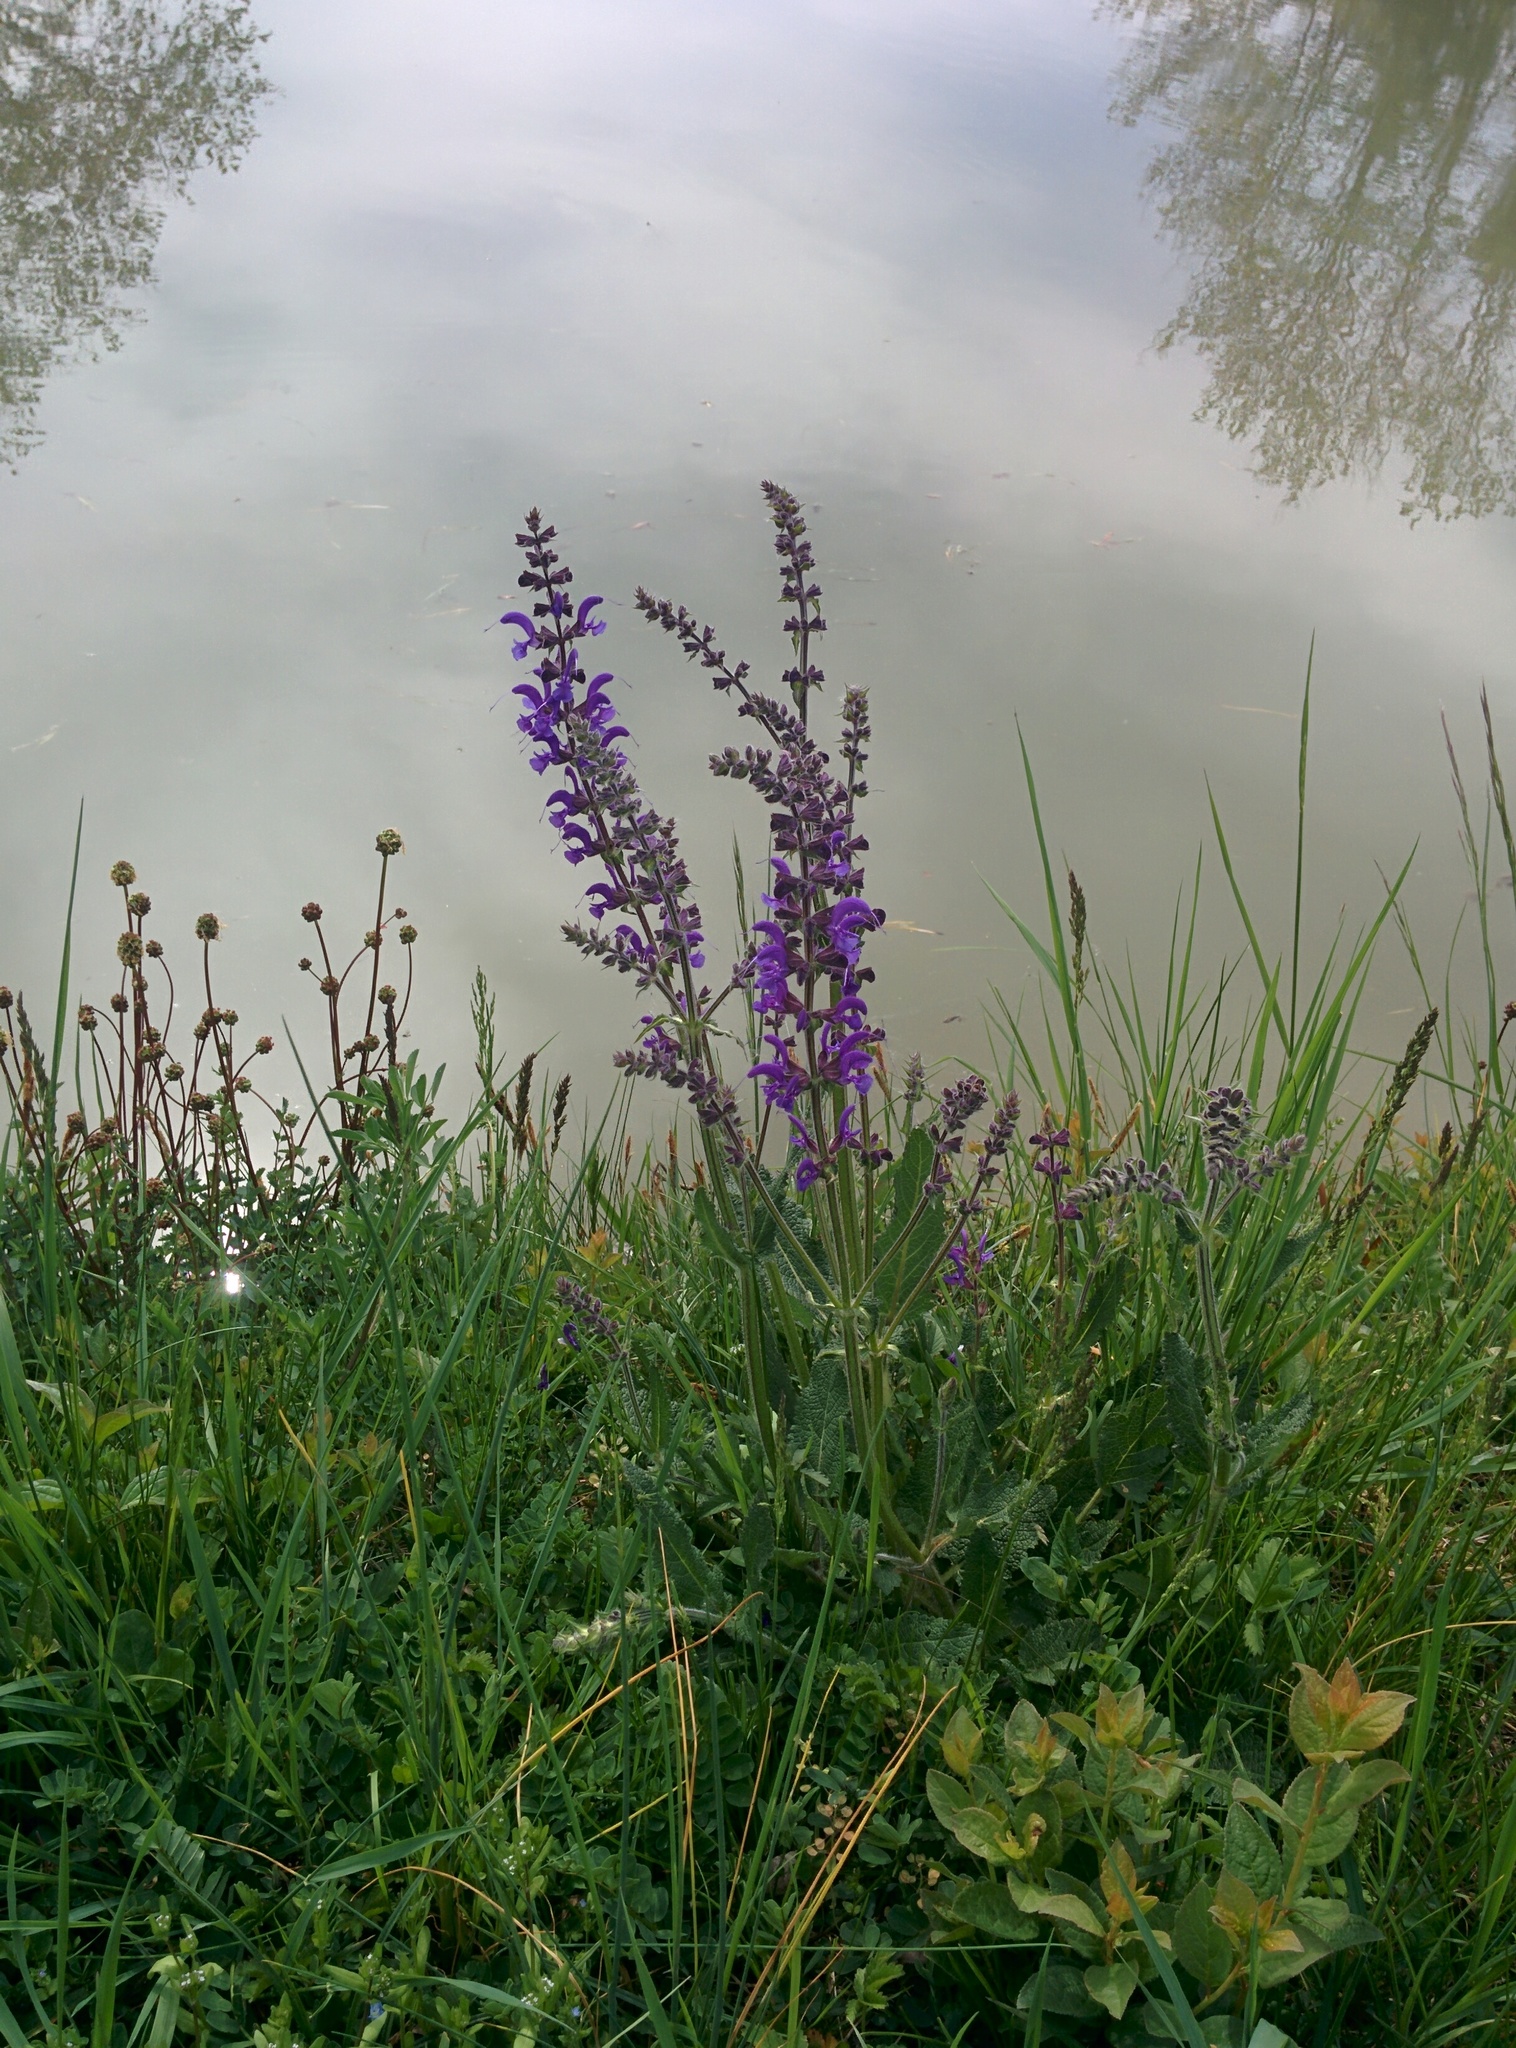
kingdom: Plantae
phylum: Tracheophyta
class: Magnoliopsida
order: Lamiales
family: Lamiaceae
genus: Salvia
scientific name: Salvia pratensis
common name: Meadow sage
